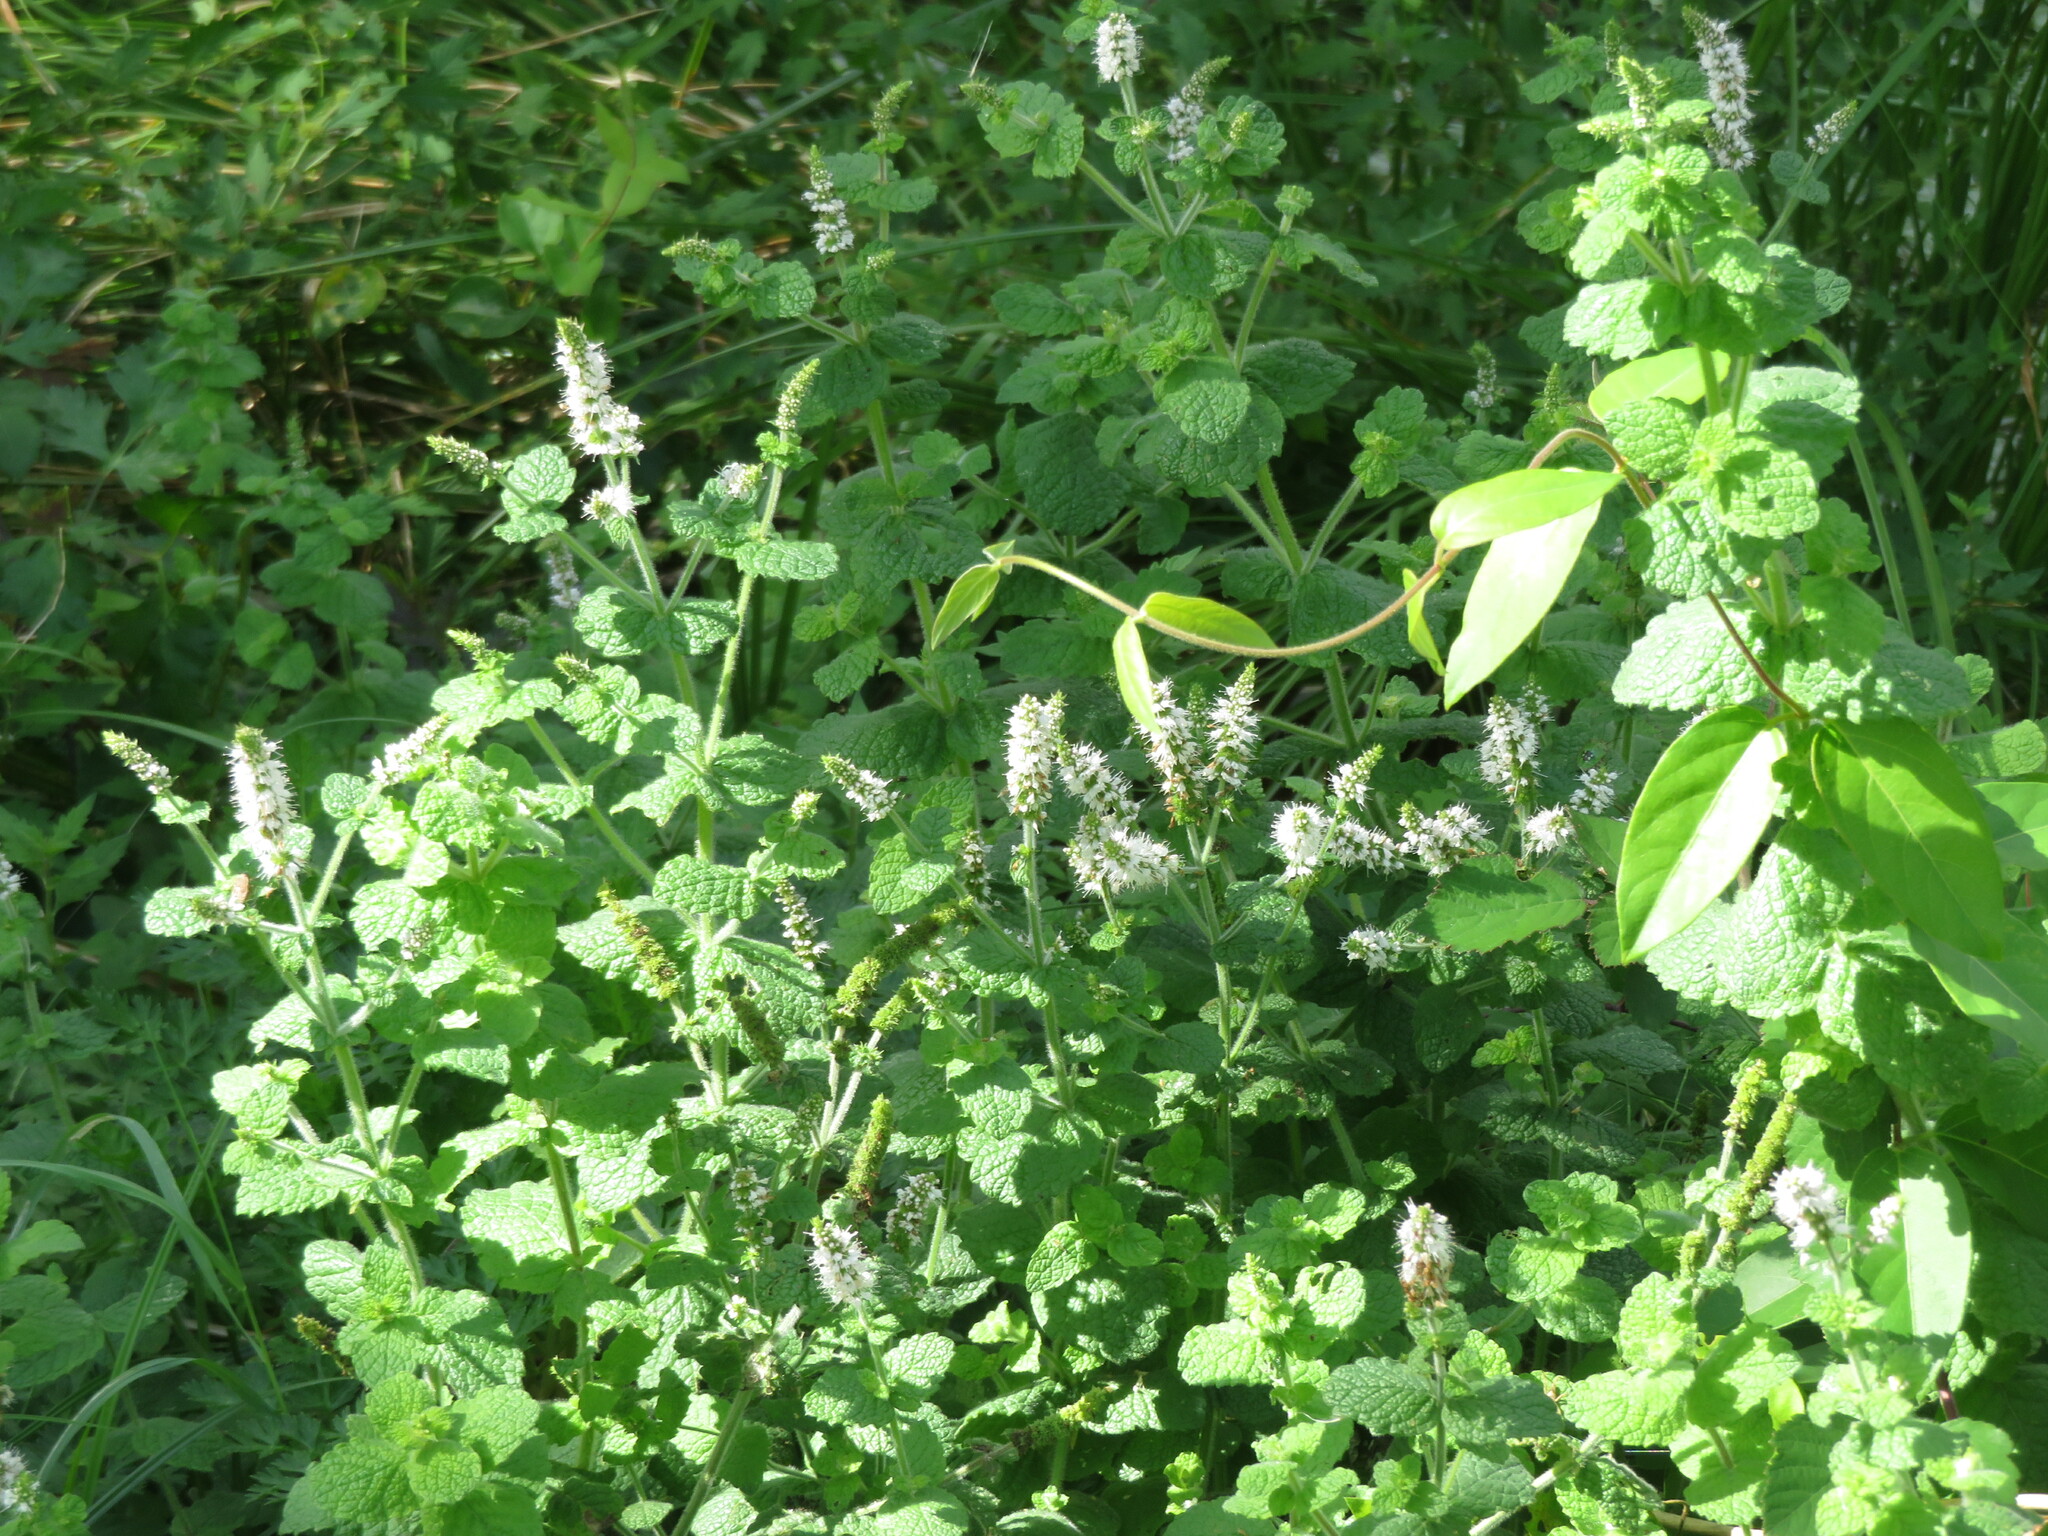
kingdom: Plantae
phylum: Tracheophyta
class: Magnoliopsida
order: Lamiales
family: Lamiaceae
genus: Mentha
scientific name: Mentha suaveolens
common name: Apple mint
